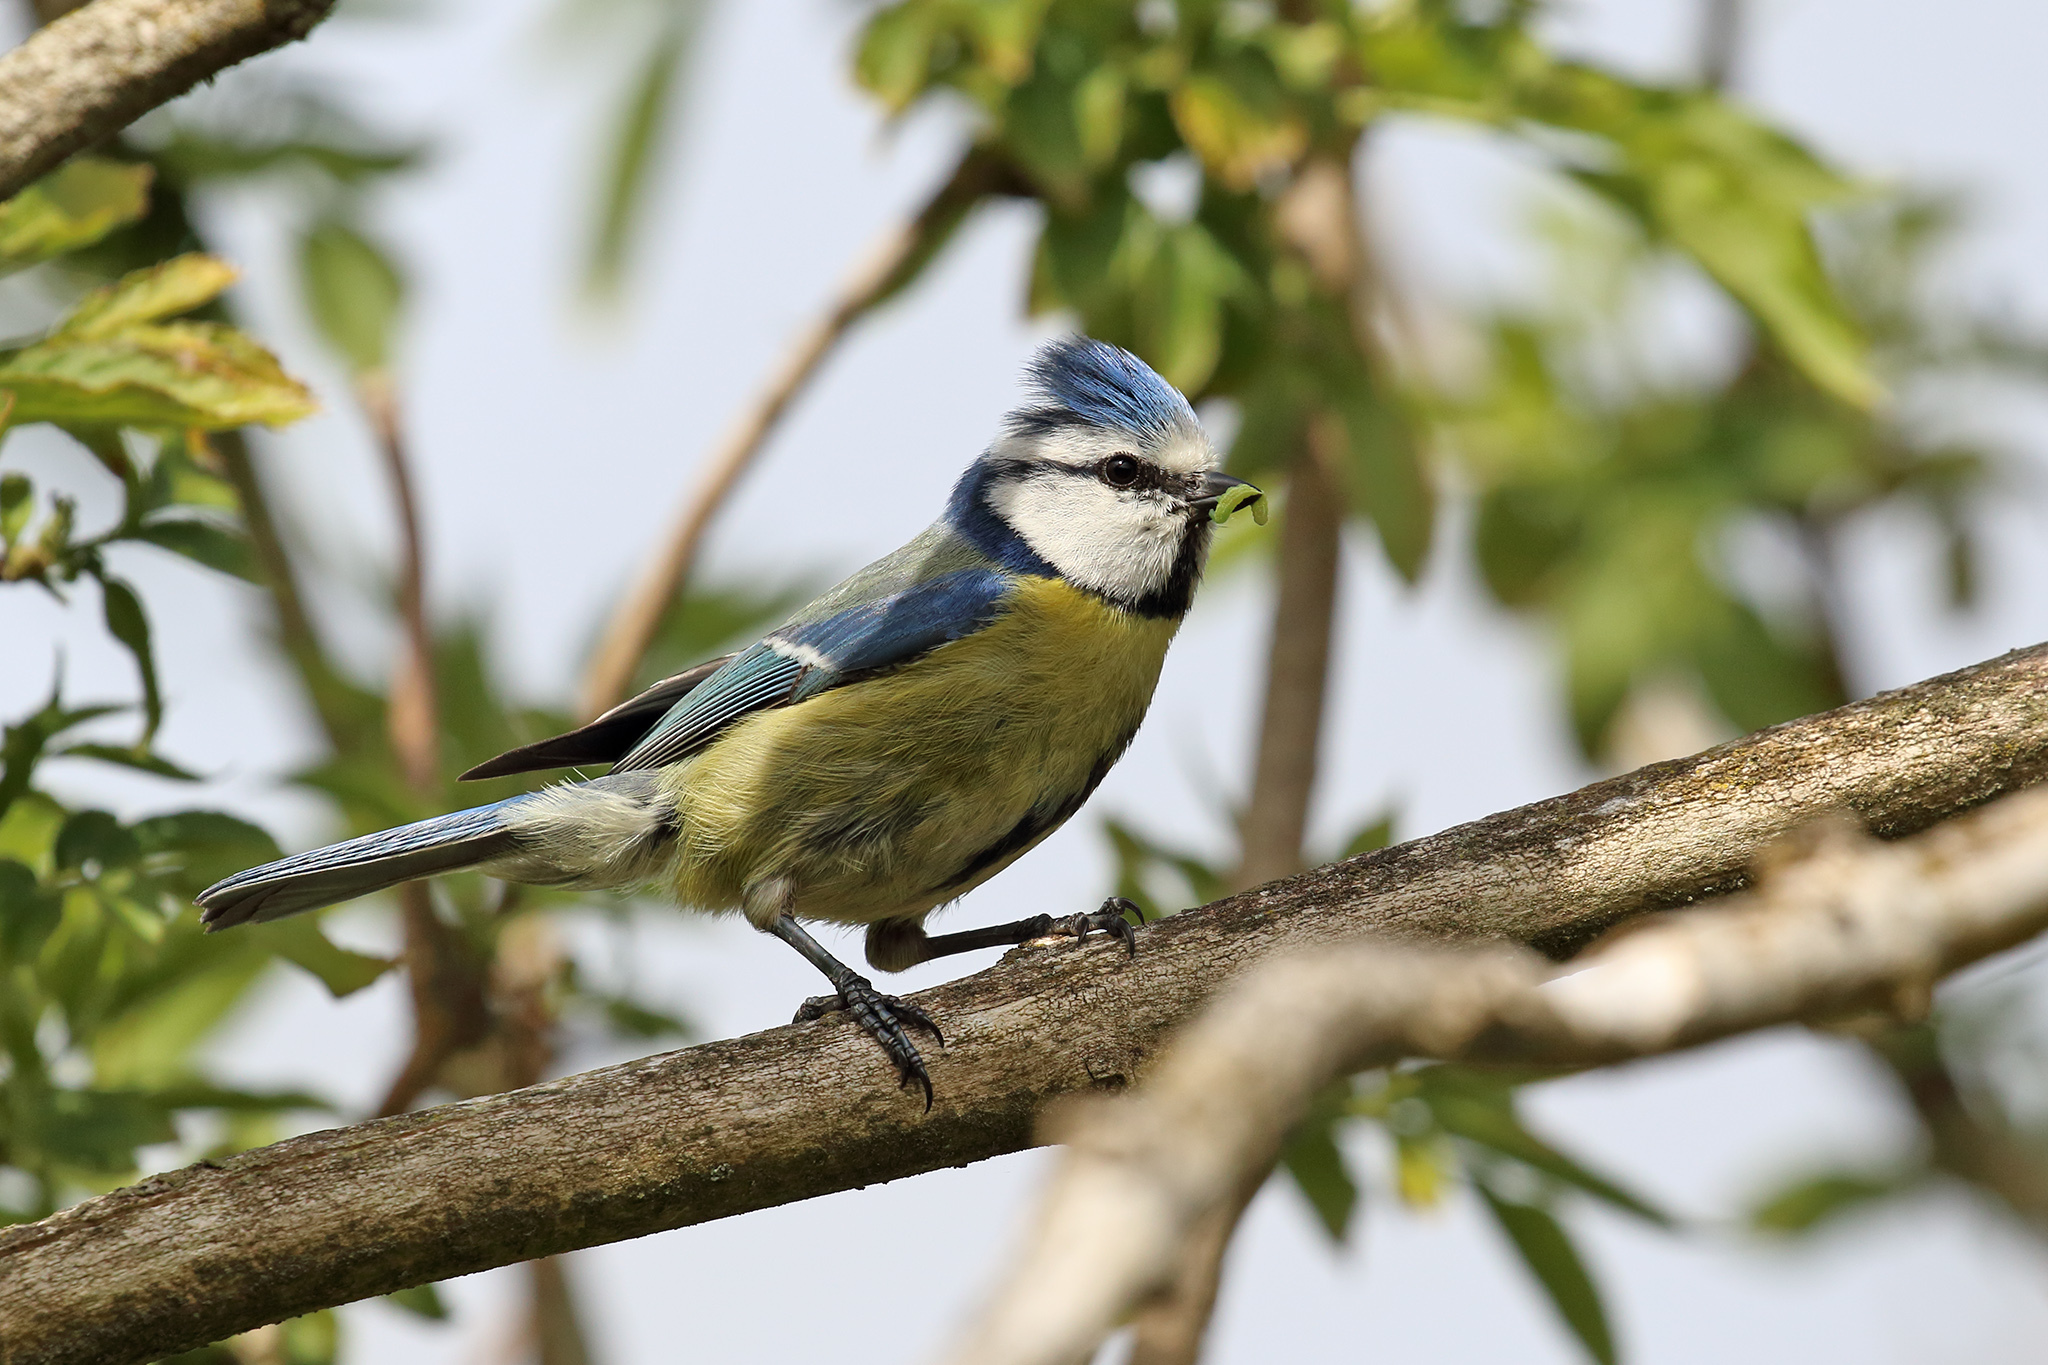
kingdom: Animalia
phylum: Chordata
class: Aves
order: Passeriformes
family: Paridae
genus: Cyanistes
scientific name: Cyanistes caeruleus
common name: Eurasian blue tit
